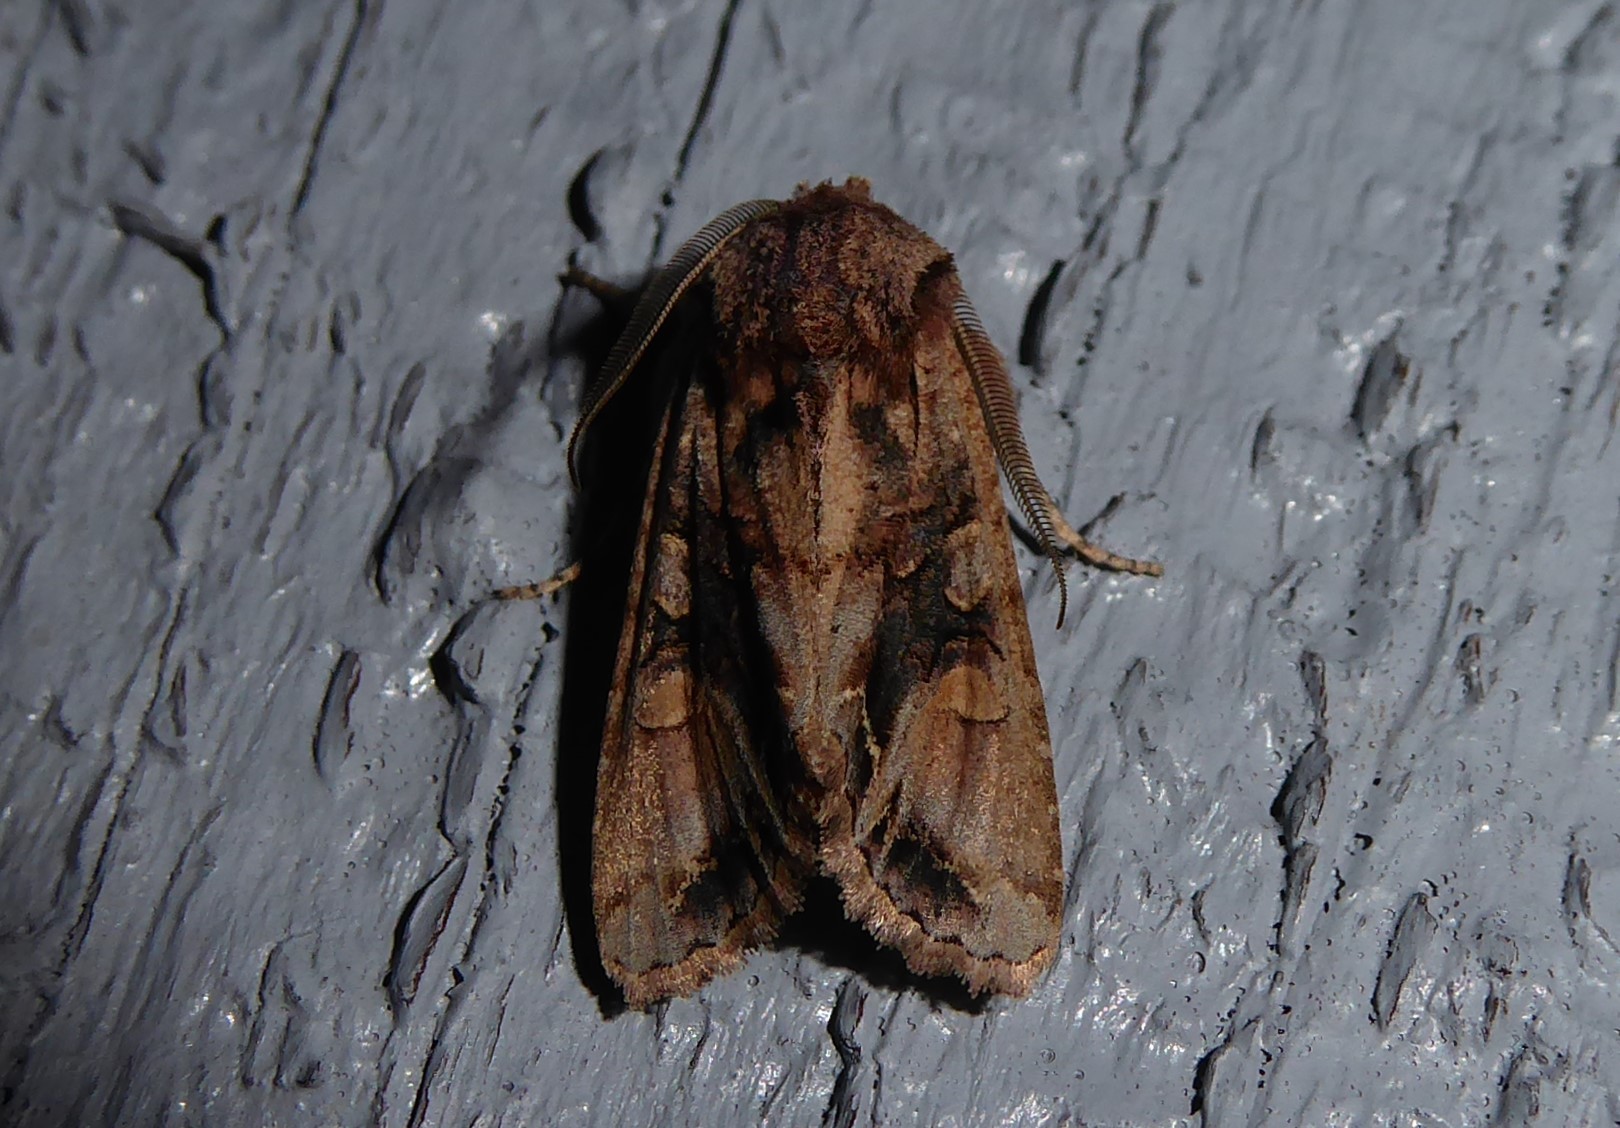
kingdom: Animalia
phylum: Arthropoda
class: Insecta
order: Lepidoptera
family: Noctuidae
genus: Ichneutica
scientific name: Ichneutica
